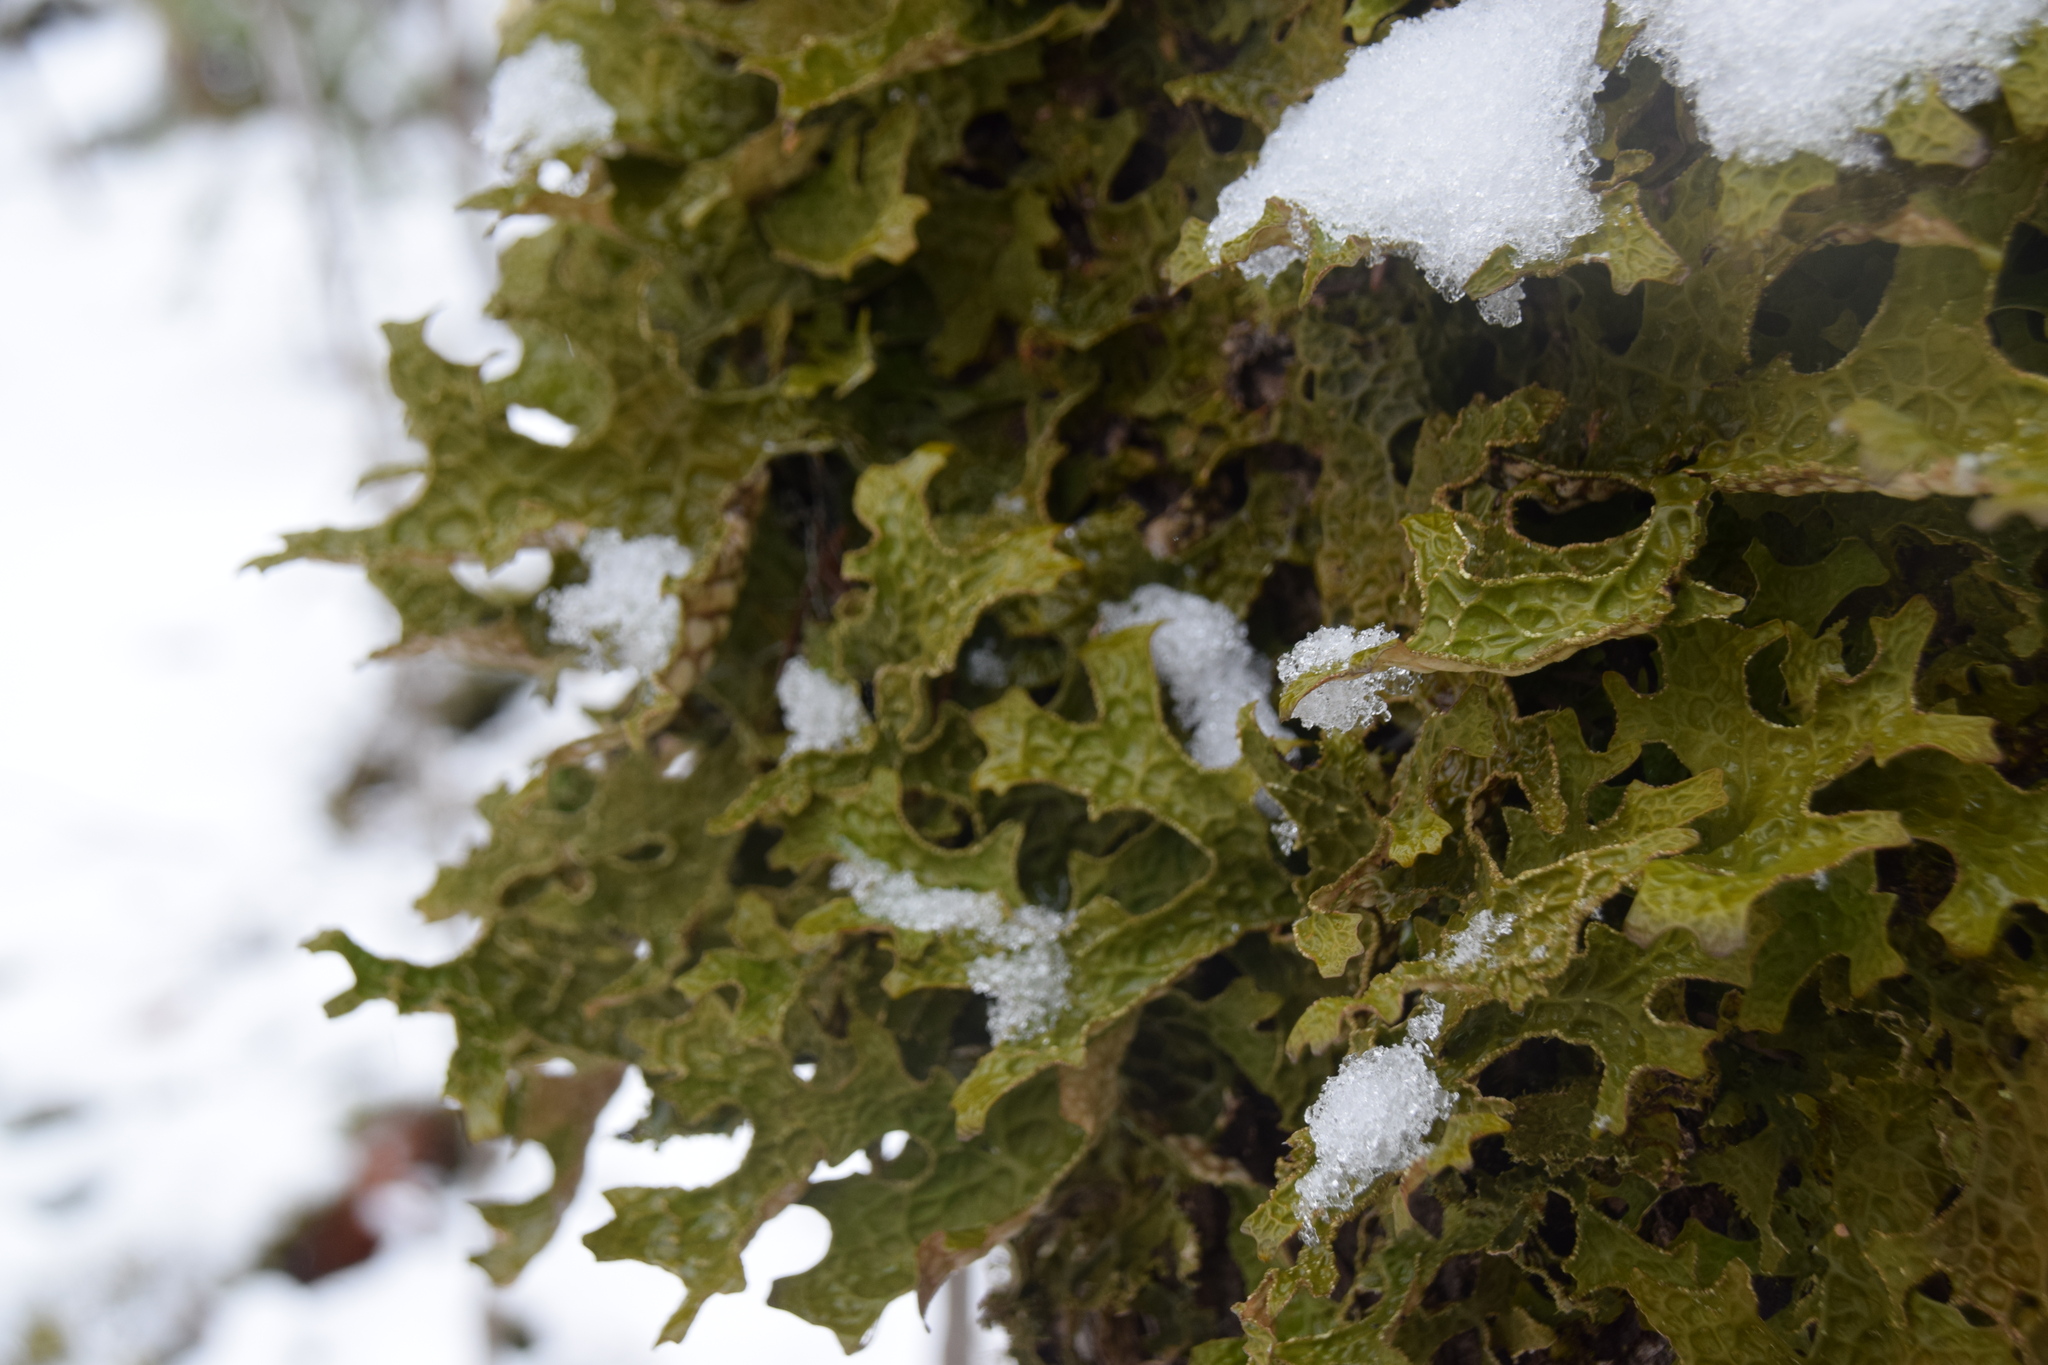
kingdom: Fungi
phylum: Ascomycota
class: Lecanoromycetes
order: Peltigerales
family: Lobariaceae
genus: Lobaria
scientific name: Lobaria pulmonaria
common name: Lungwort
